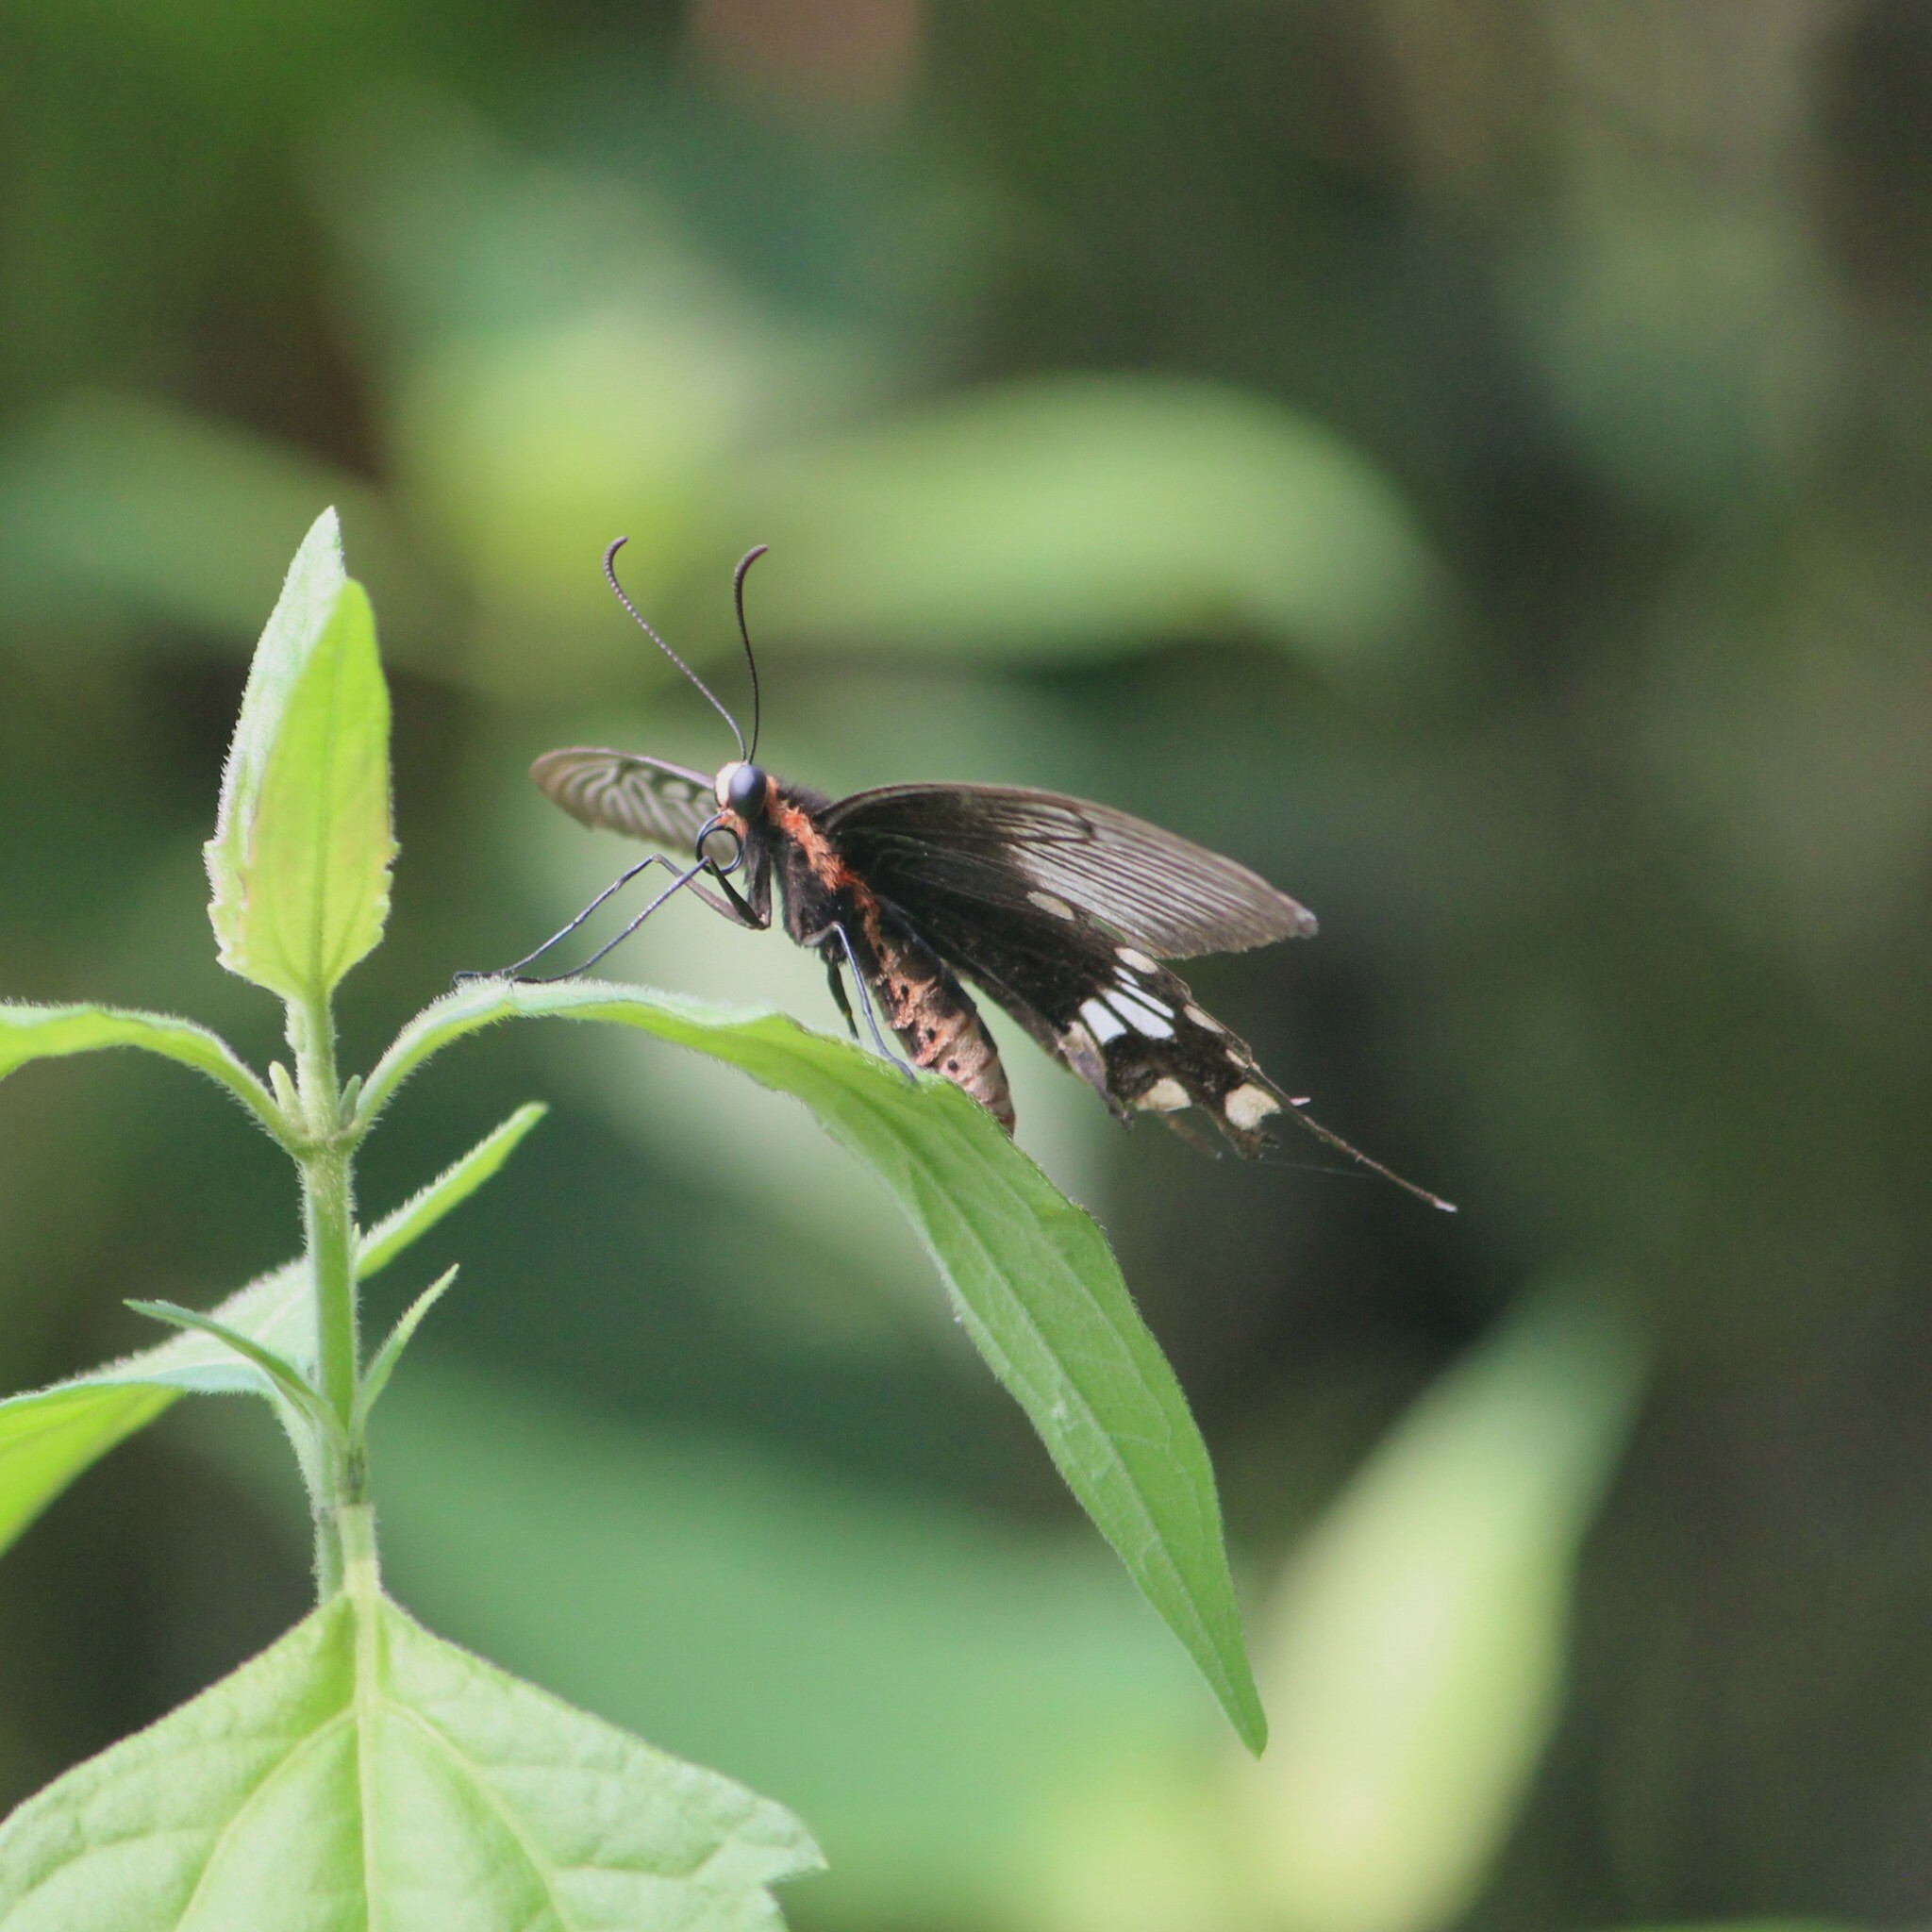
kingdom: Animalia
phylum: Arthropoda
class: Insecta
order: Lepidoptera
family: Papilionidae
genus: Pachliopta
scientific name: Pachliopta aristolochiae
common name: Common rose
